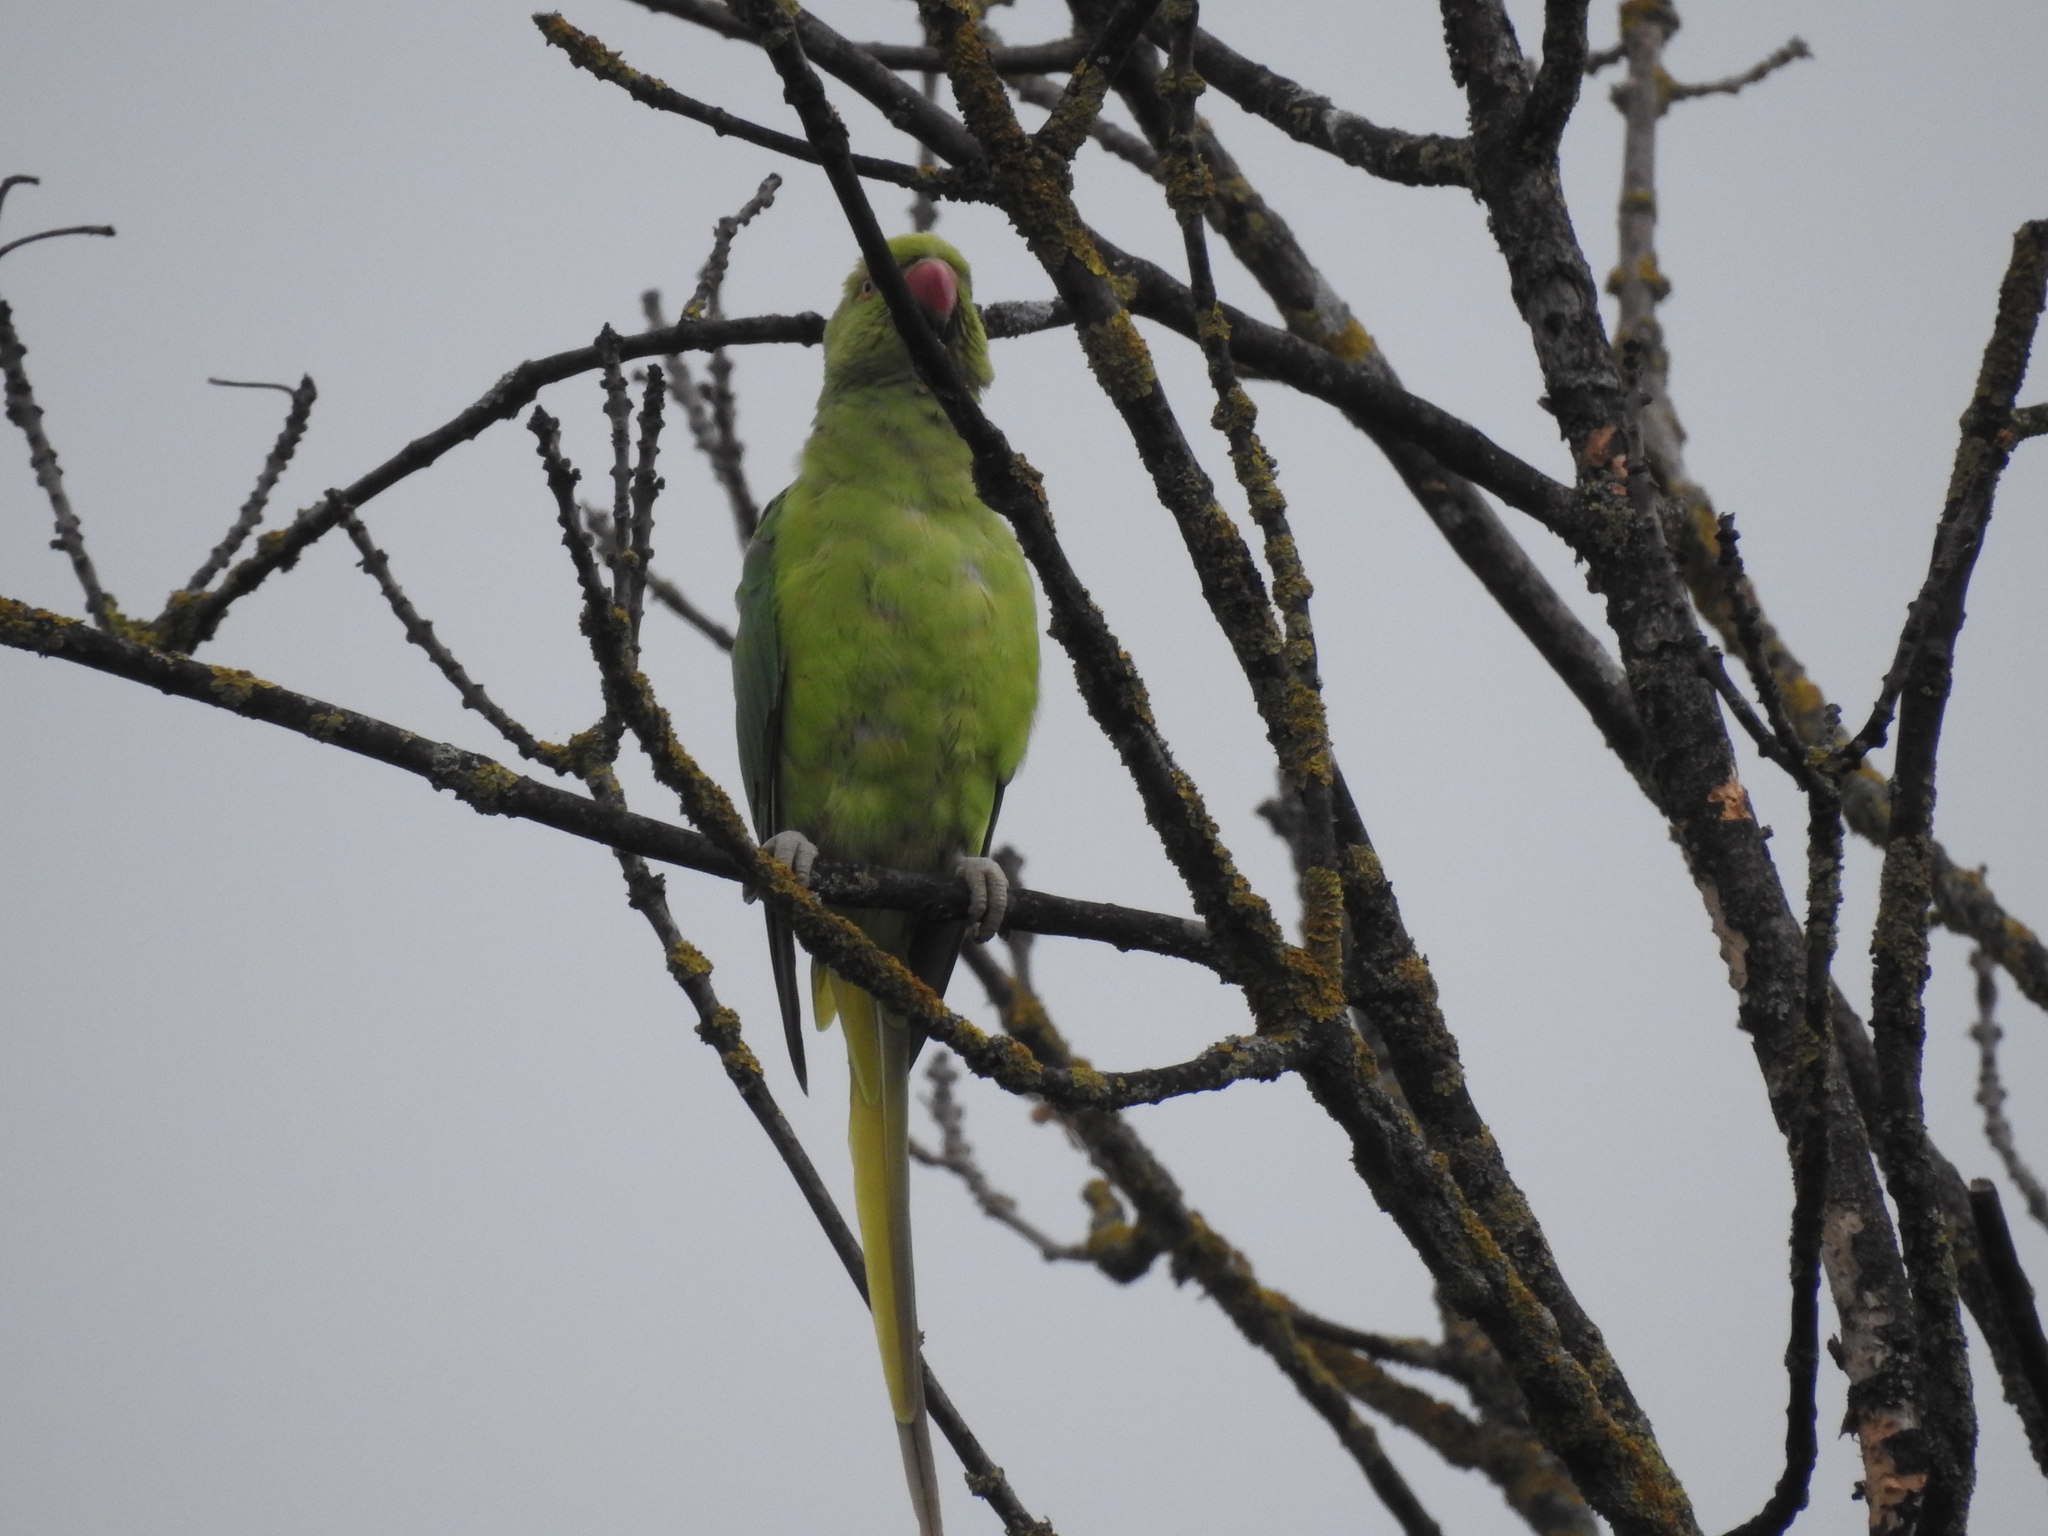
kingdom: Animalia
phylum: Chordata
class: Aves
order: Psittaciformes
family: Psittacidae
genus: Psittacula
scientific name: Psittacula krameri
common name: Rose-ringed parakeet
